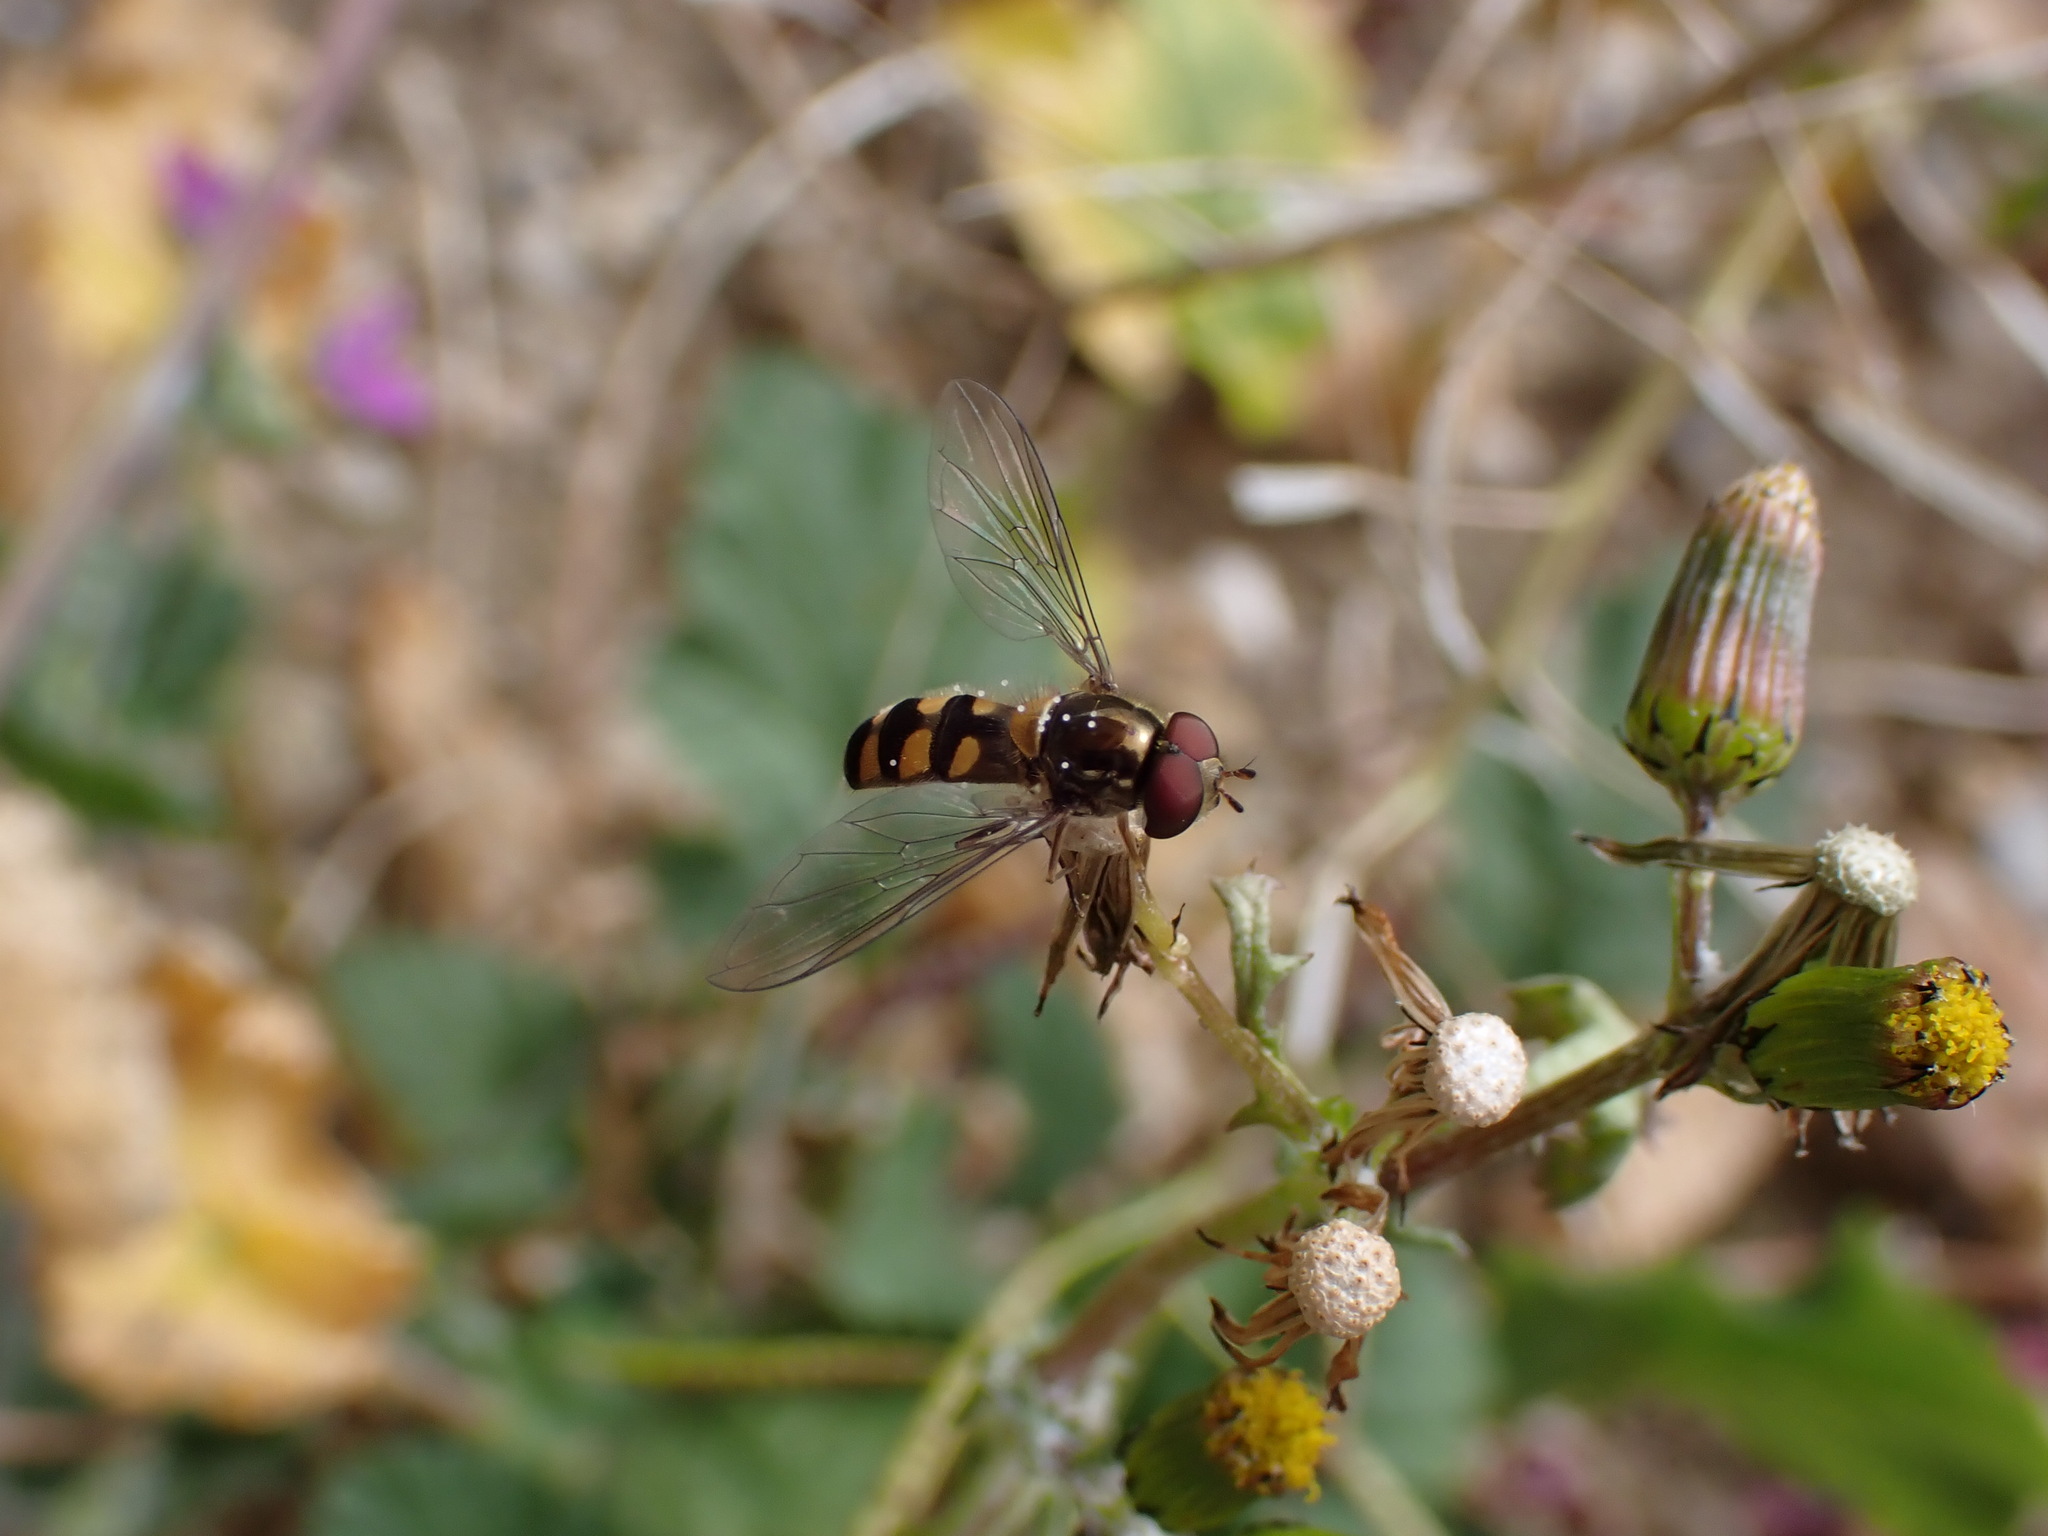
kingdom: Animalia
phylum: Arthropoda
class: Insecta
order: Diptera
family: Syrphidae
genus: Meliscaeva
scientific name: Meliscaeva auricollis
